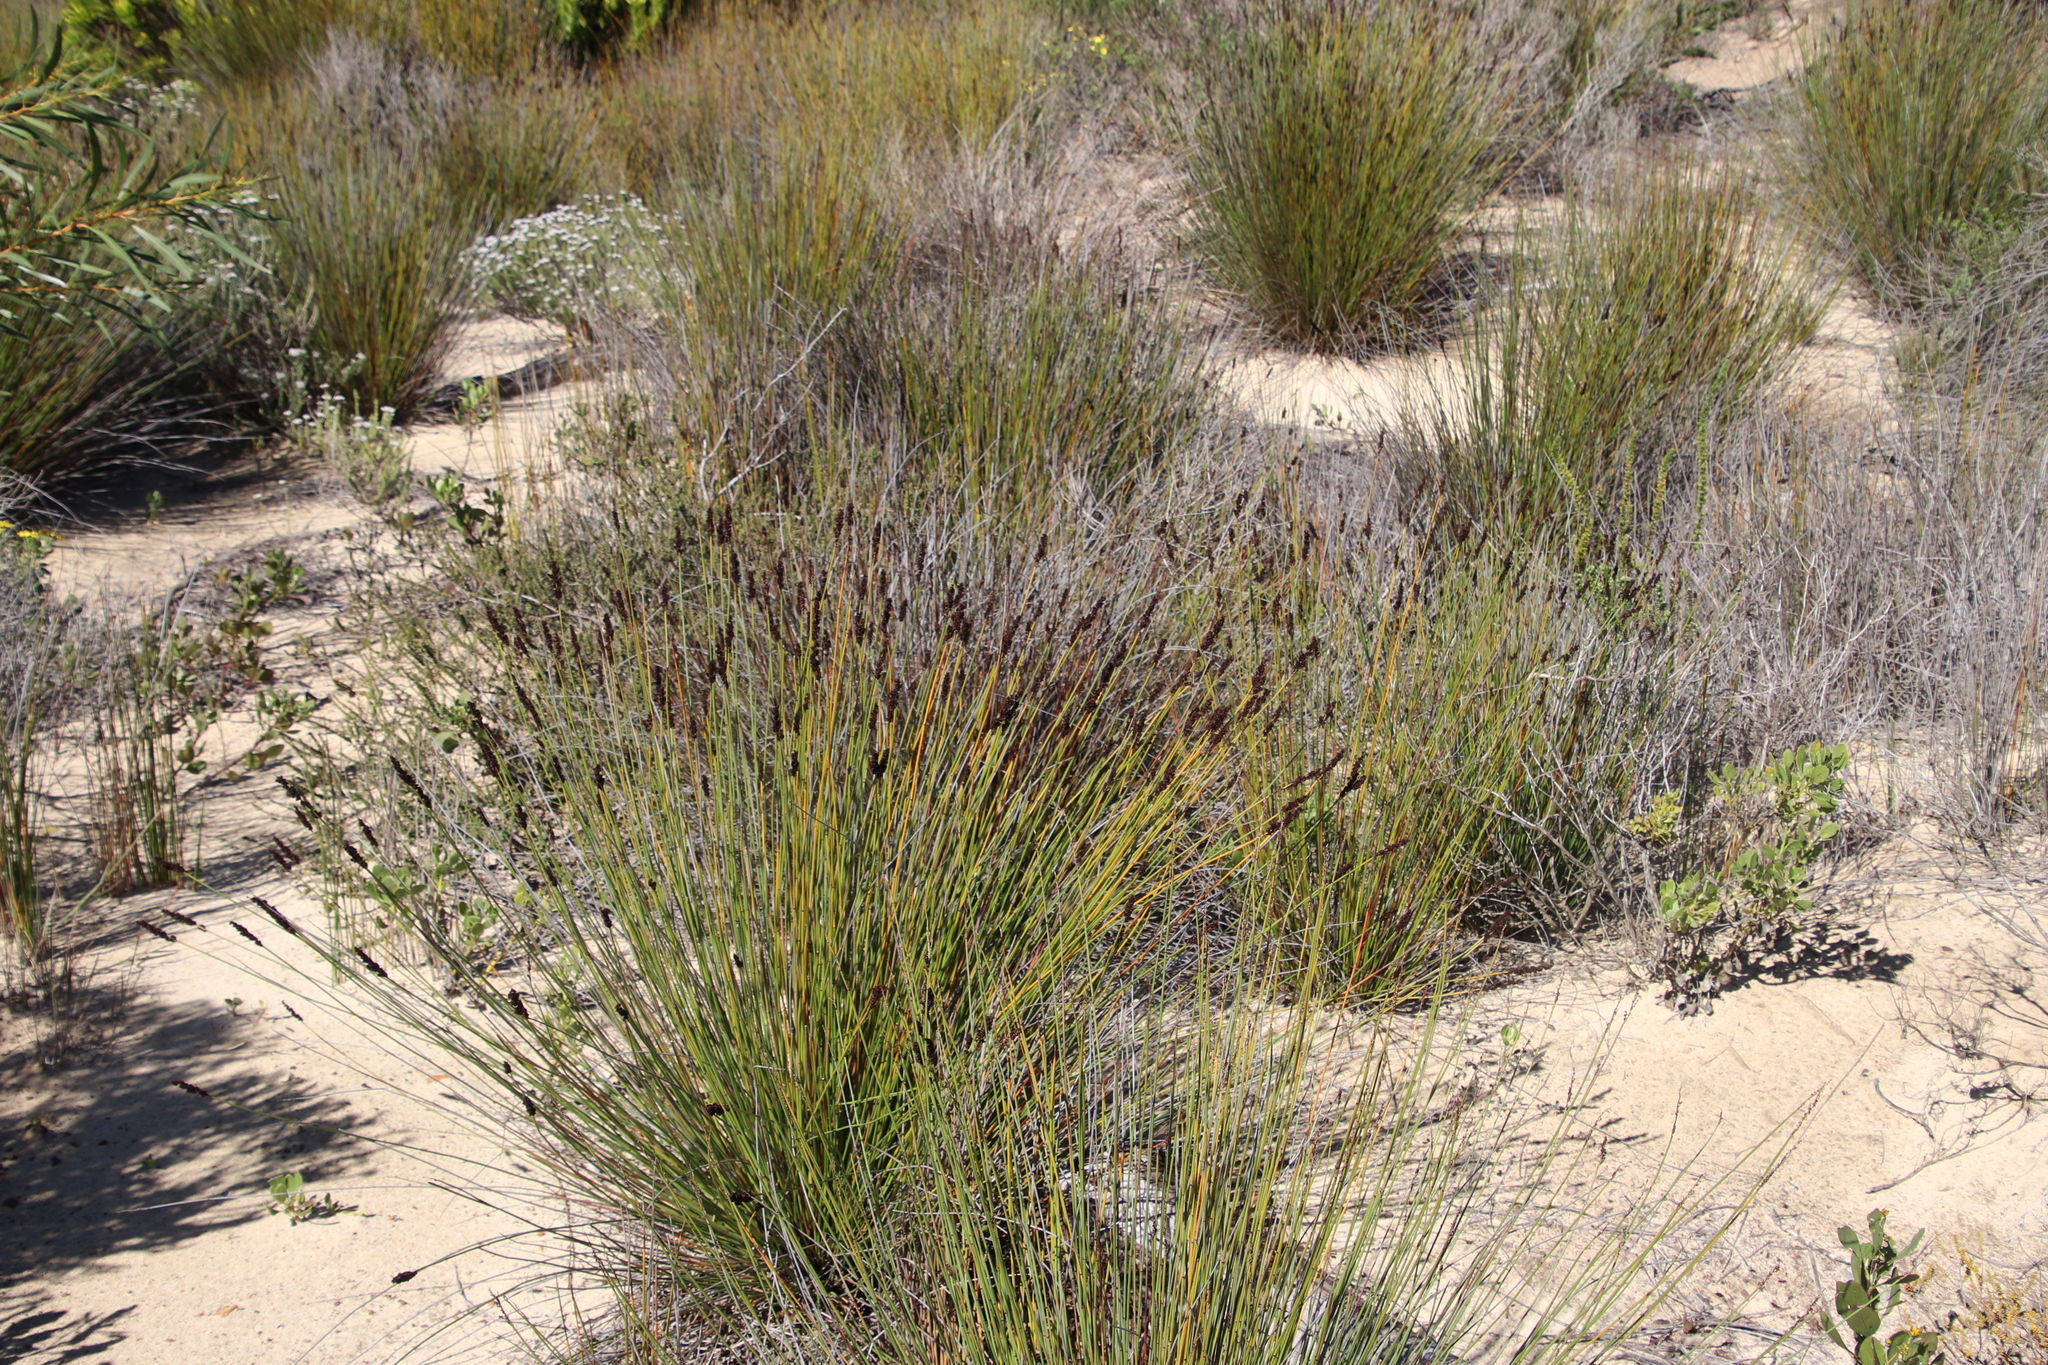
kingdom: Plantae
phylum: Tracheophyta
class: Liliopsida
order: Poales
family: Restionaceae
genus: Elegia
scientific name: Elegia tectorum
